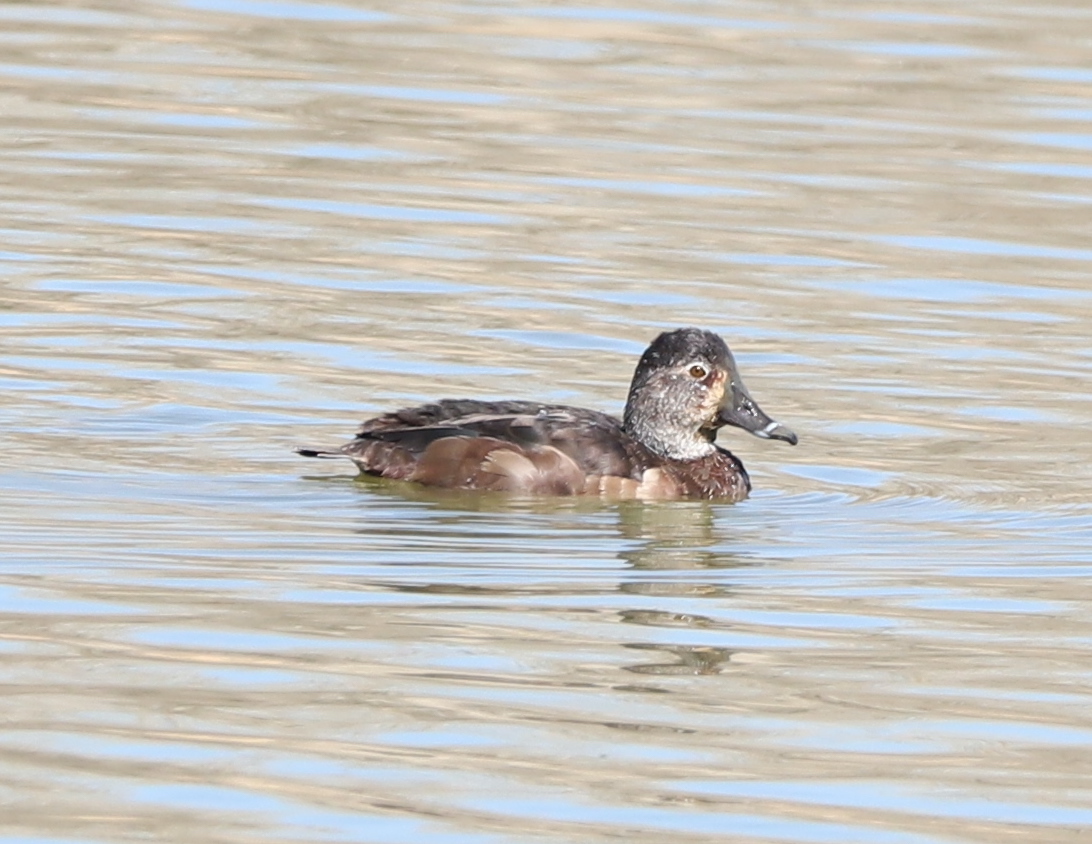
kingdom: Animalia
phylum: Chordata
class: Aves
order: Anseriformes
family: Anatidae
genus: Aythya
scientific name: Aythya collaris
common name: Ring-necked duck
